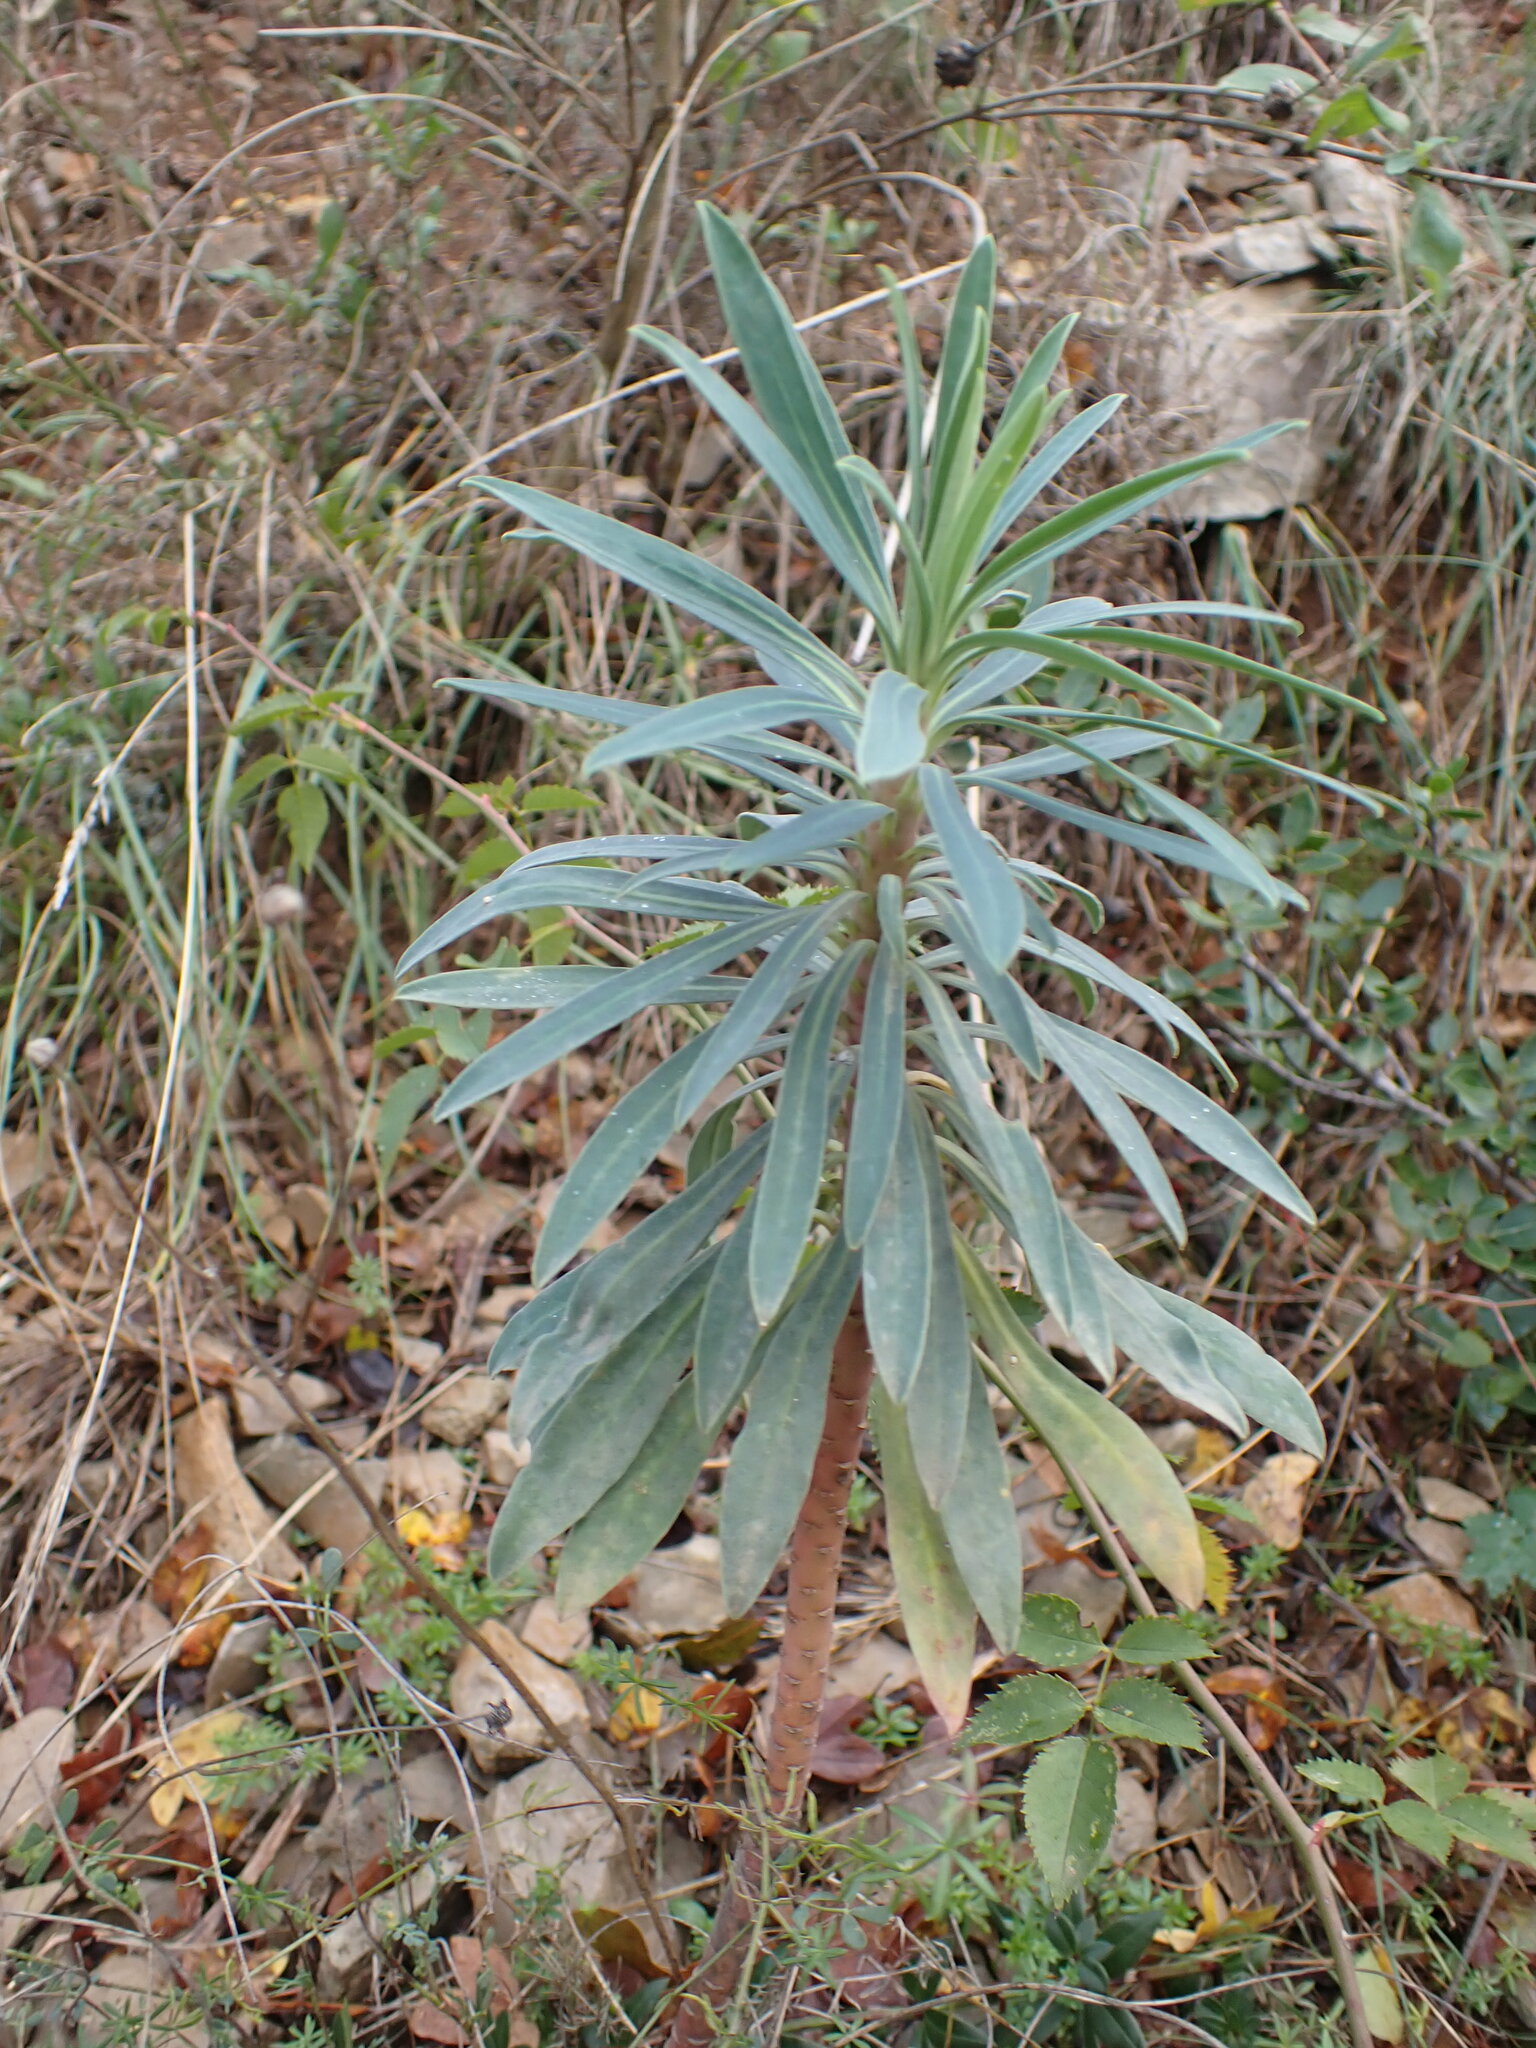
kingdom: Plantae
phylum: Tracheophyta
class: Magnoliopsida
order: Malpighiales
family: Euphorbiaceae
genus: Euphorbia
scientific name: Euphorbia characias
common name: Mediterranean spurge
